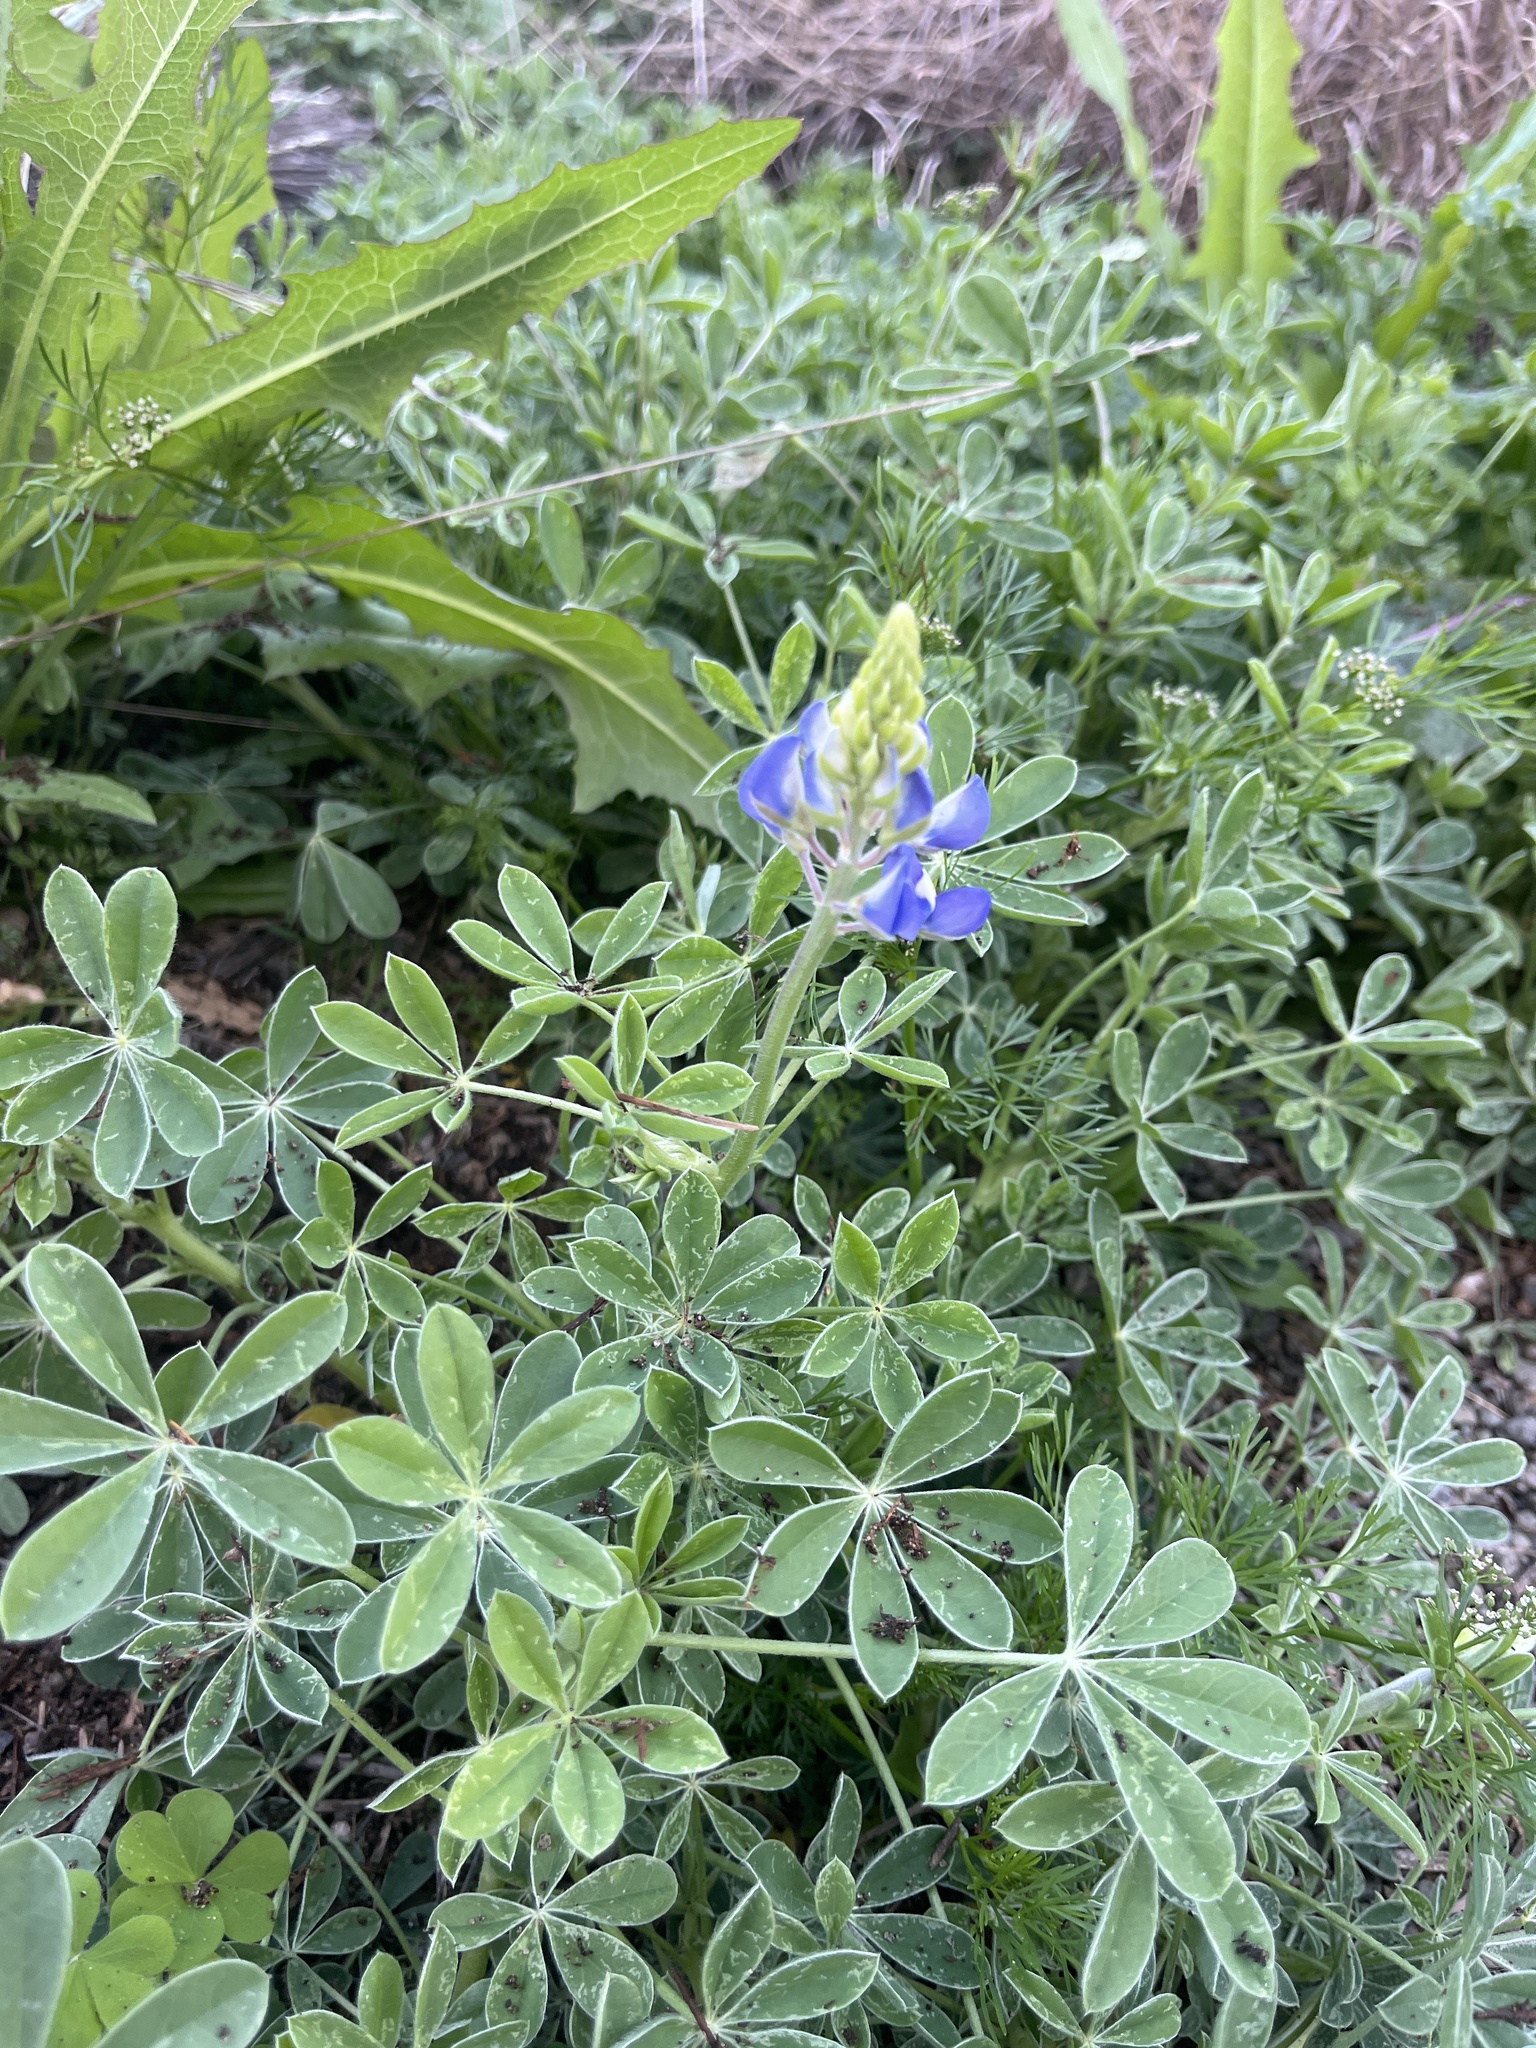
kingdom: Plantae
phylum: Tracheophyta
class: Magnoliopsida
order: Fabales
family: Fabaceae
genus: Lupinus
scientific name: Lupinus texensis
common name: Texas bluebonnet
